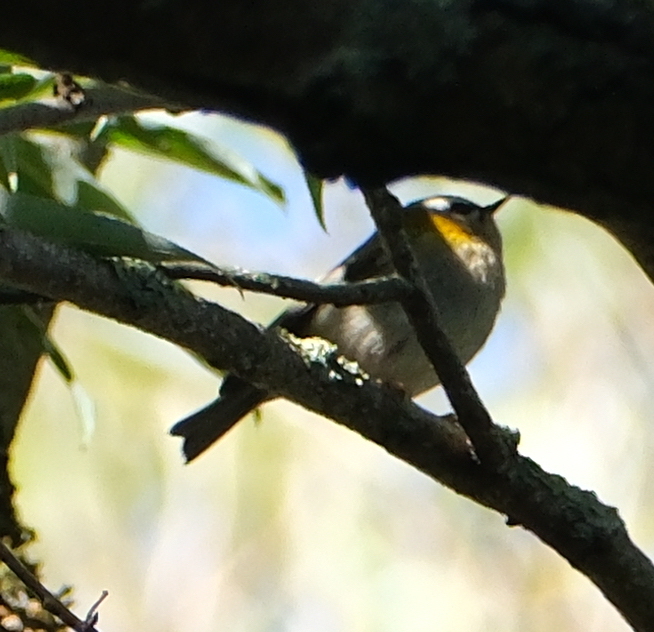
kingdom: Animalia
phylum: Chordata
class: Aves
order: Passeriformes
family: Regulidae
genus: Regulus
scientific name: Regulus ignicapilla
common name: Firecrest
